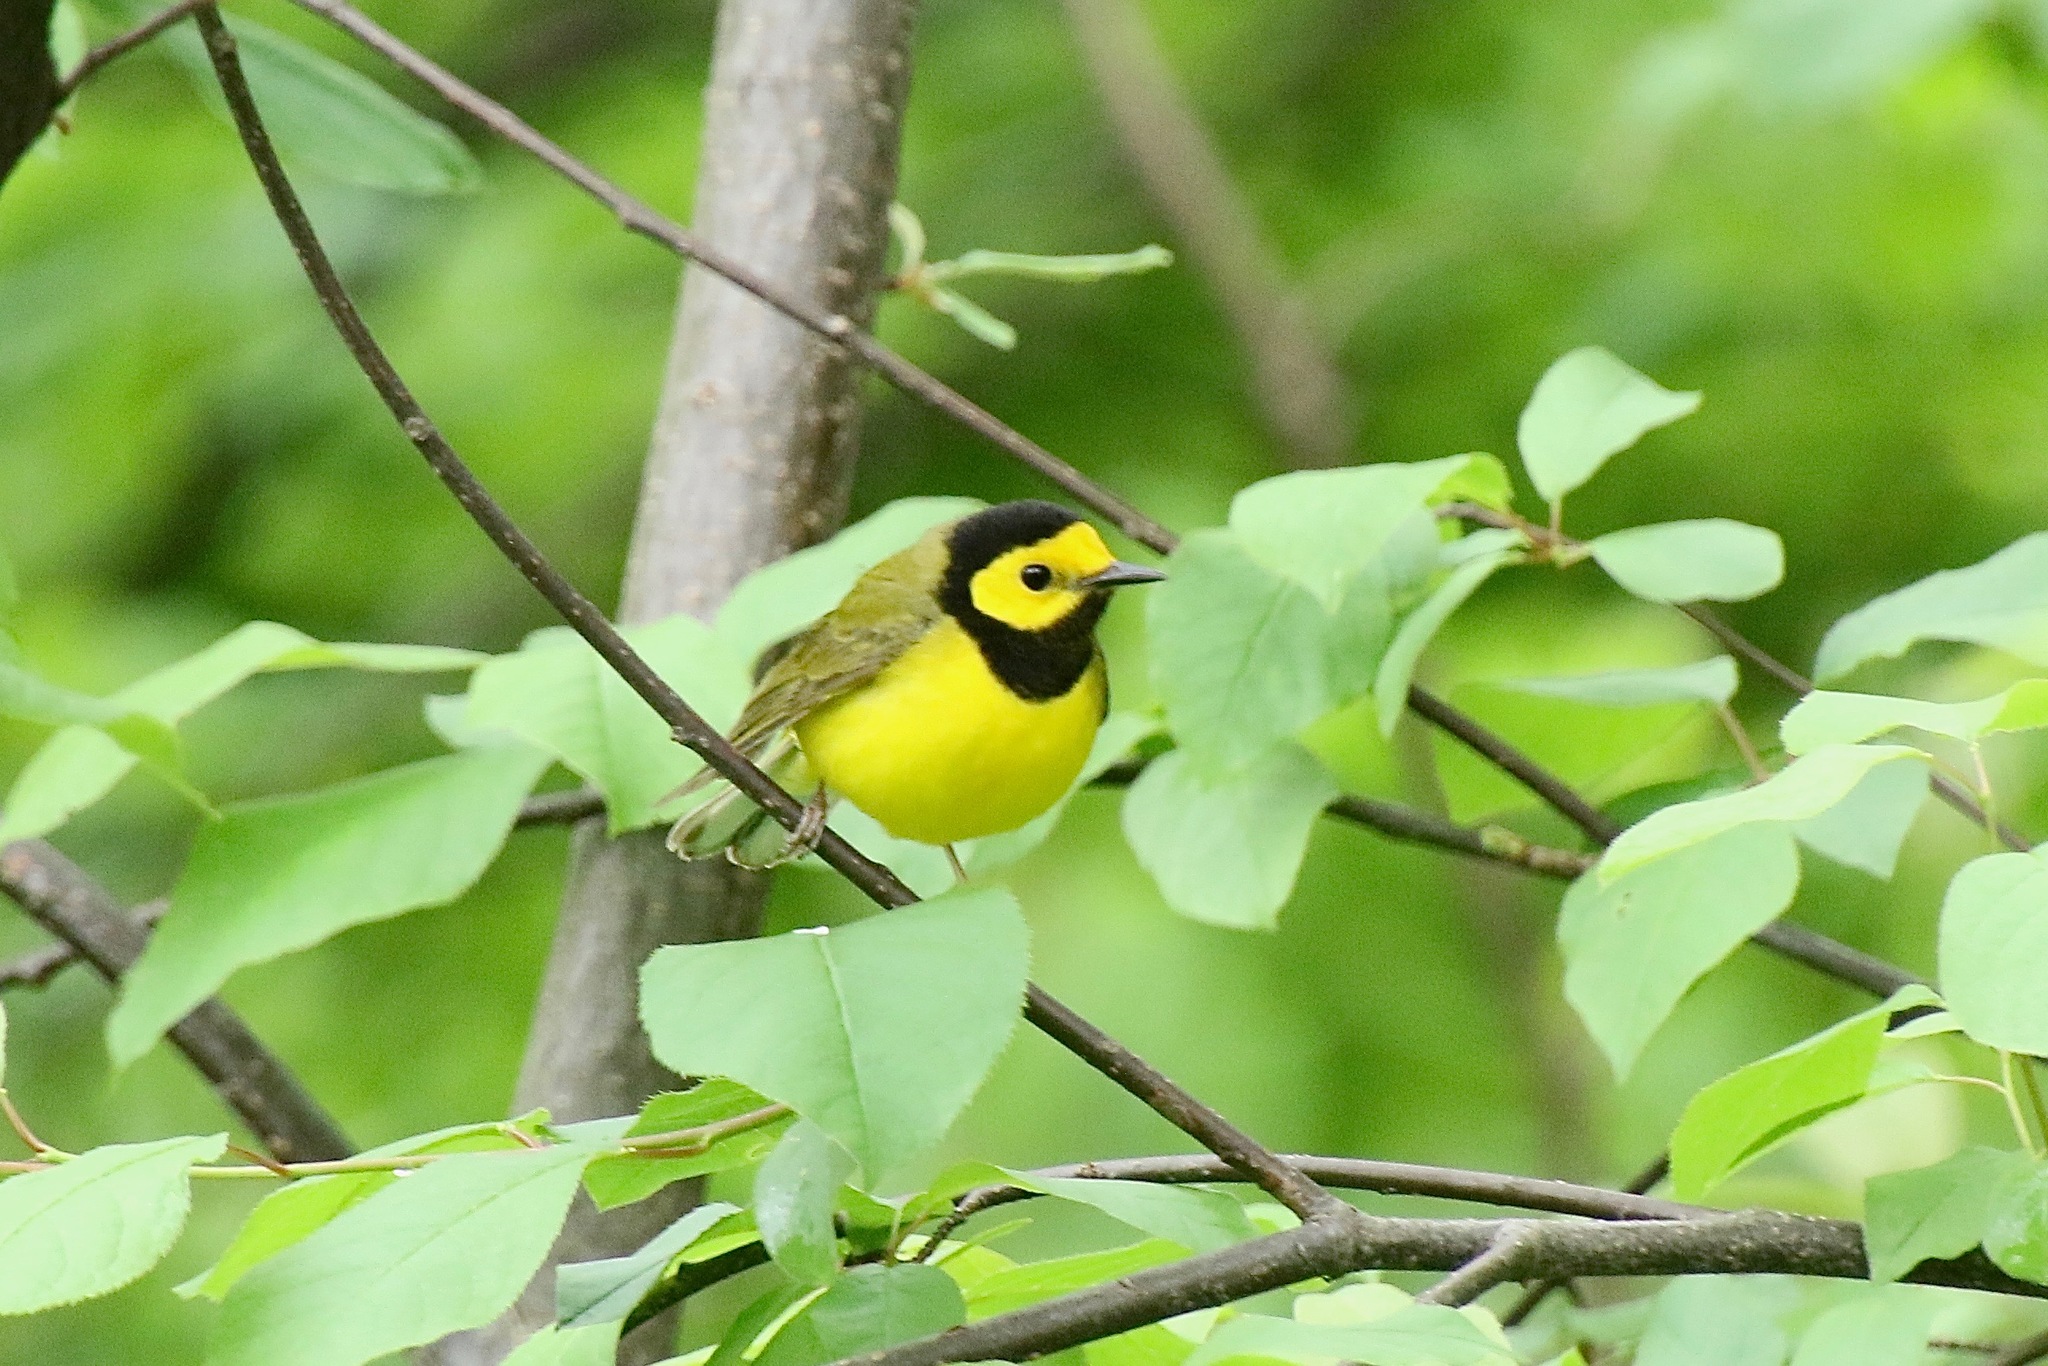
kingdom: Animalia
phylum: Chordata
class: Aves
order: Passeriformes
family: Parulidae
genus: Setophaga
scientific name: Setophaga citrina
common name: Hooded warbler
